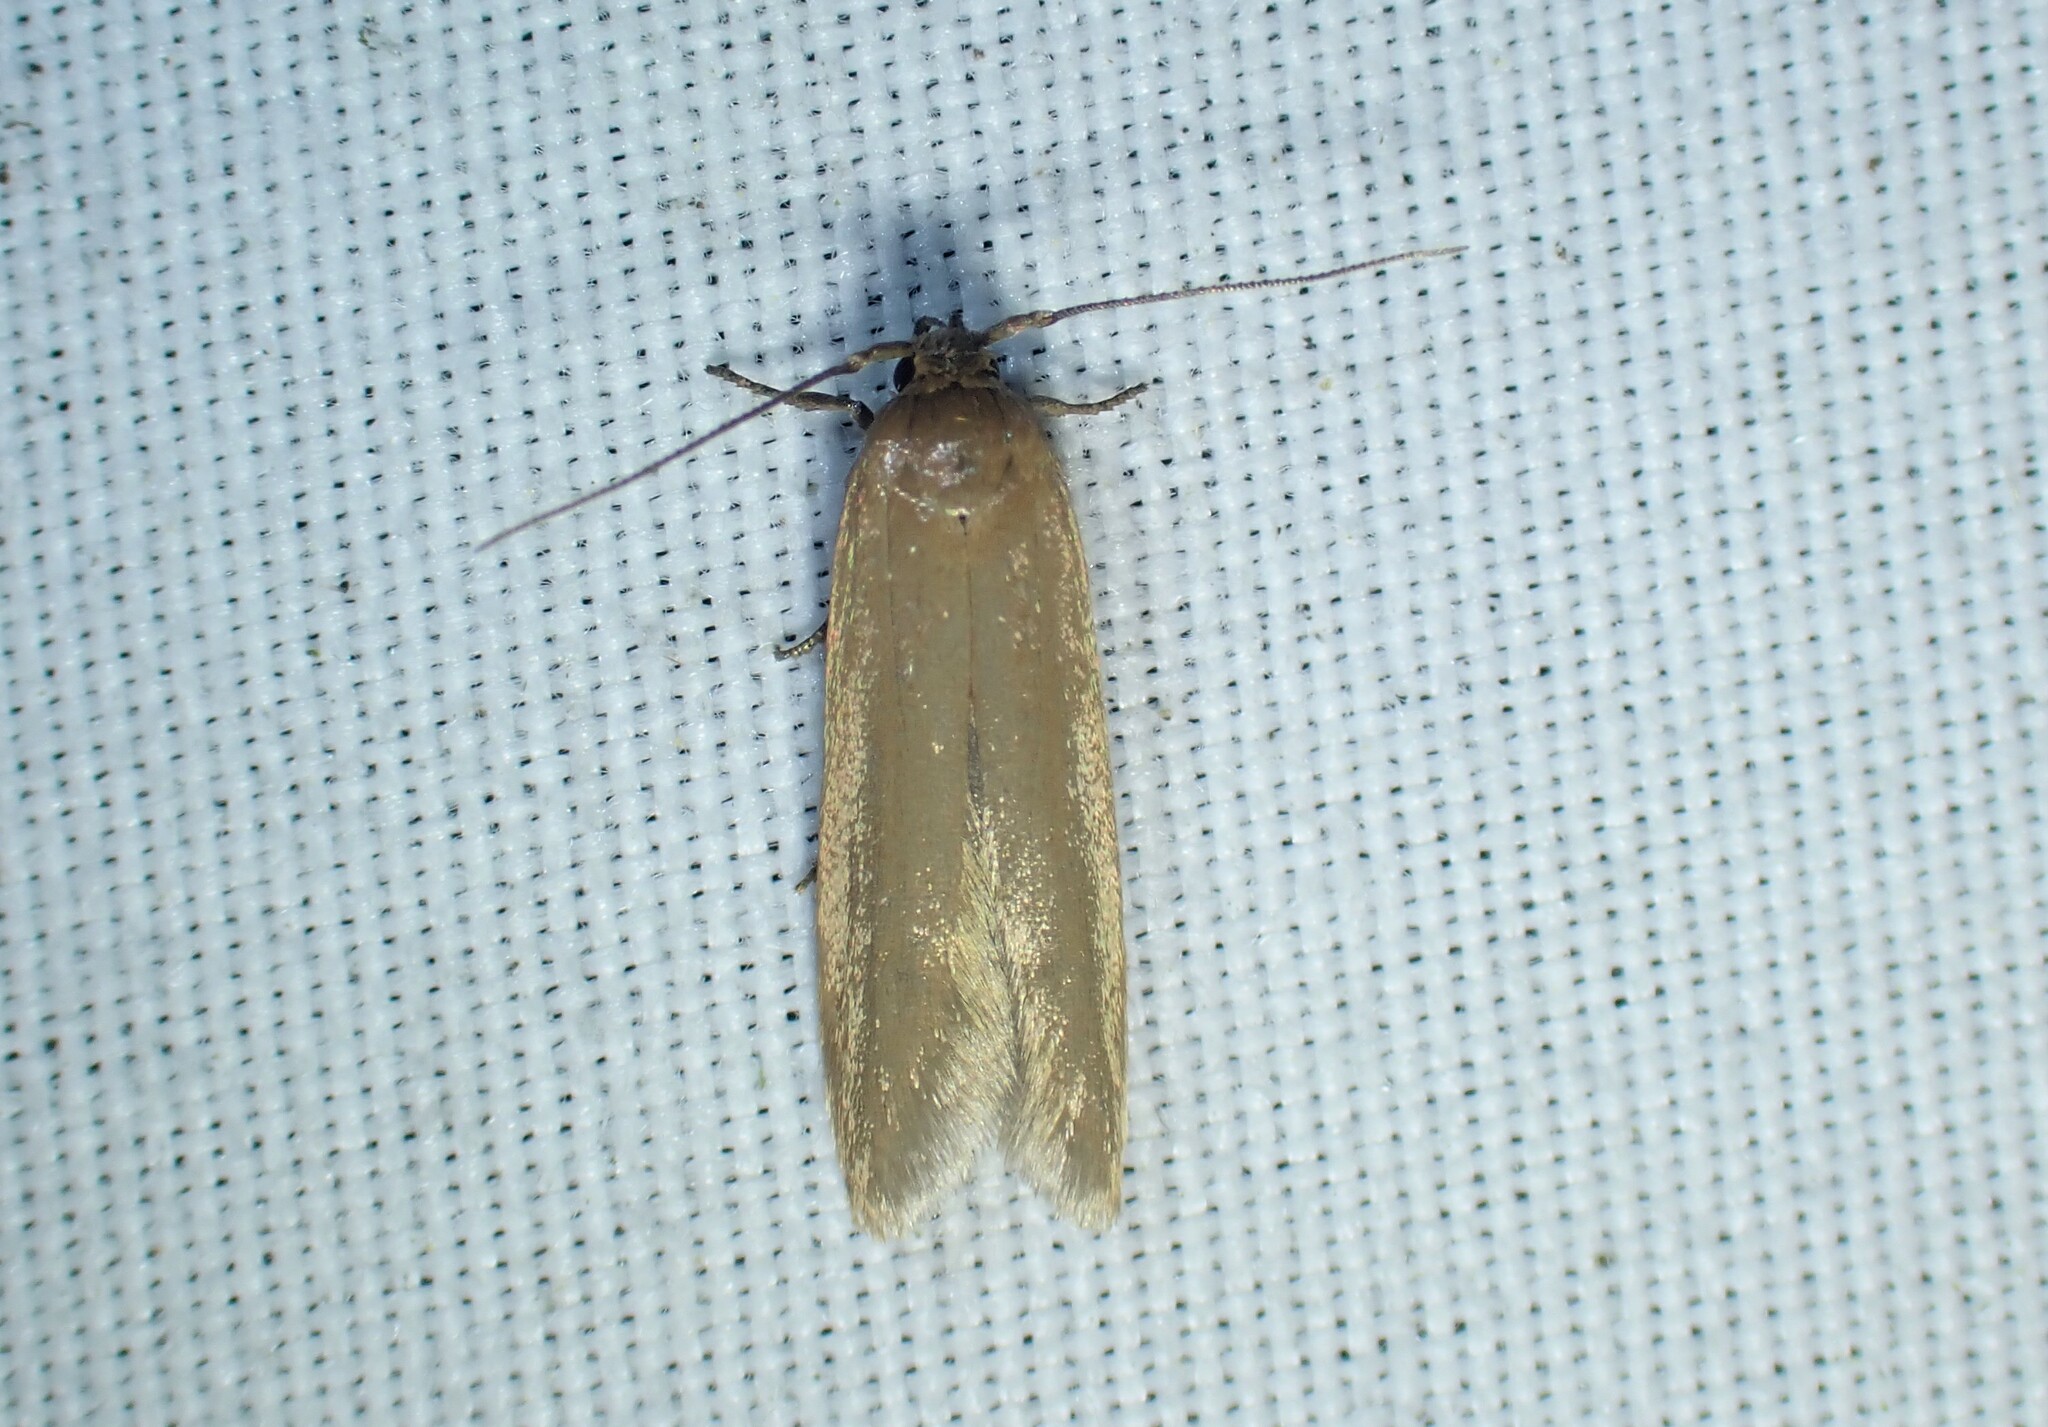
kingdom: Animalia
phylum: Arthropoda
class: Insecta
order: Lepidoptera
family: Blastobasidae
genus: Holcocerina
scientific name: Holcocerina immaculella
